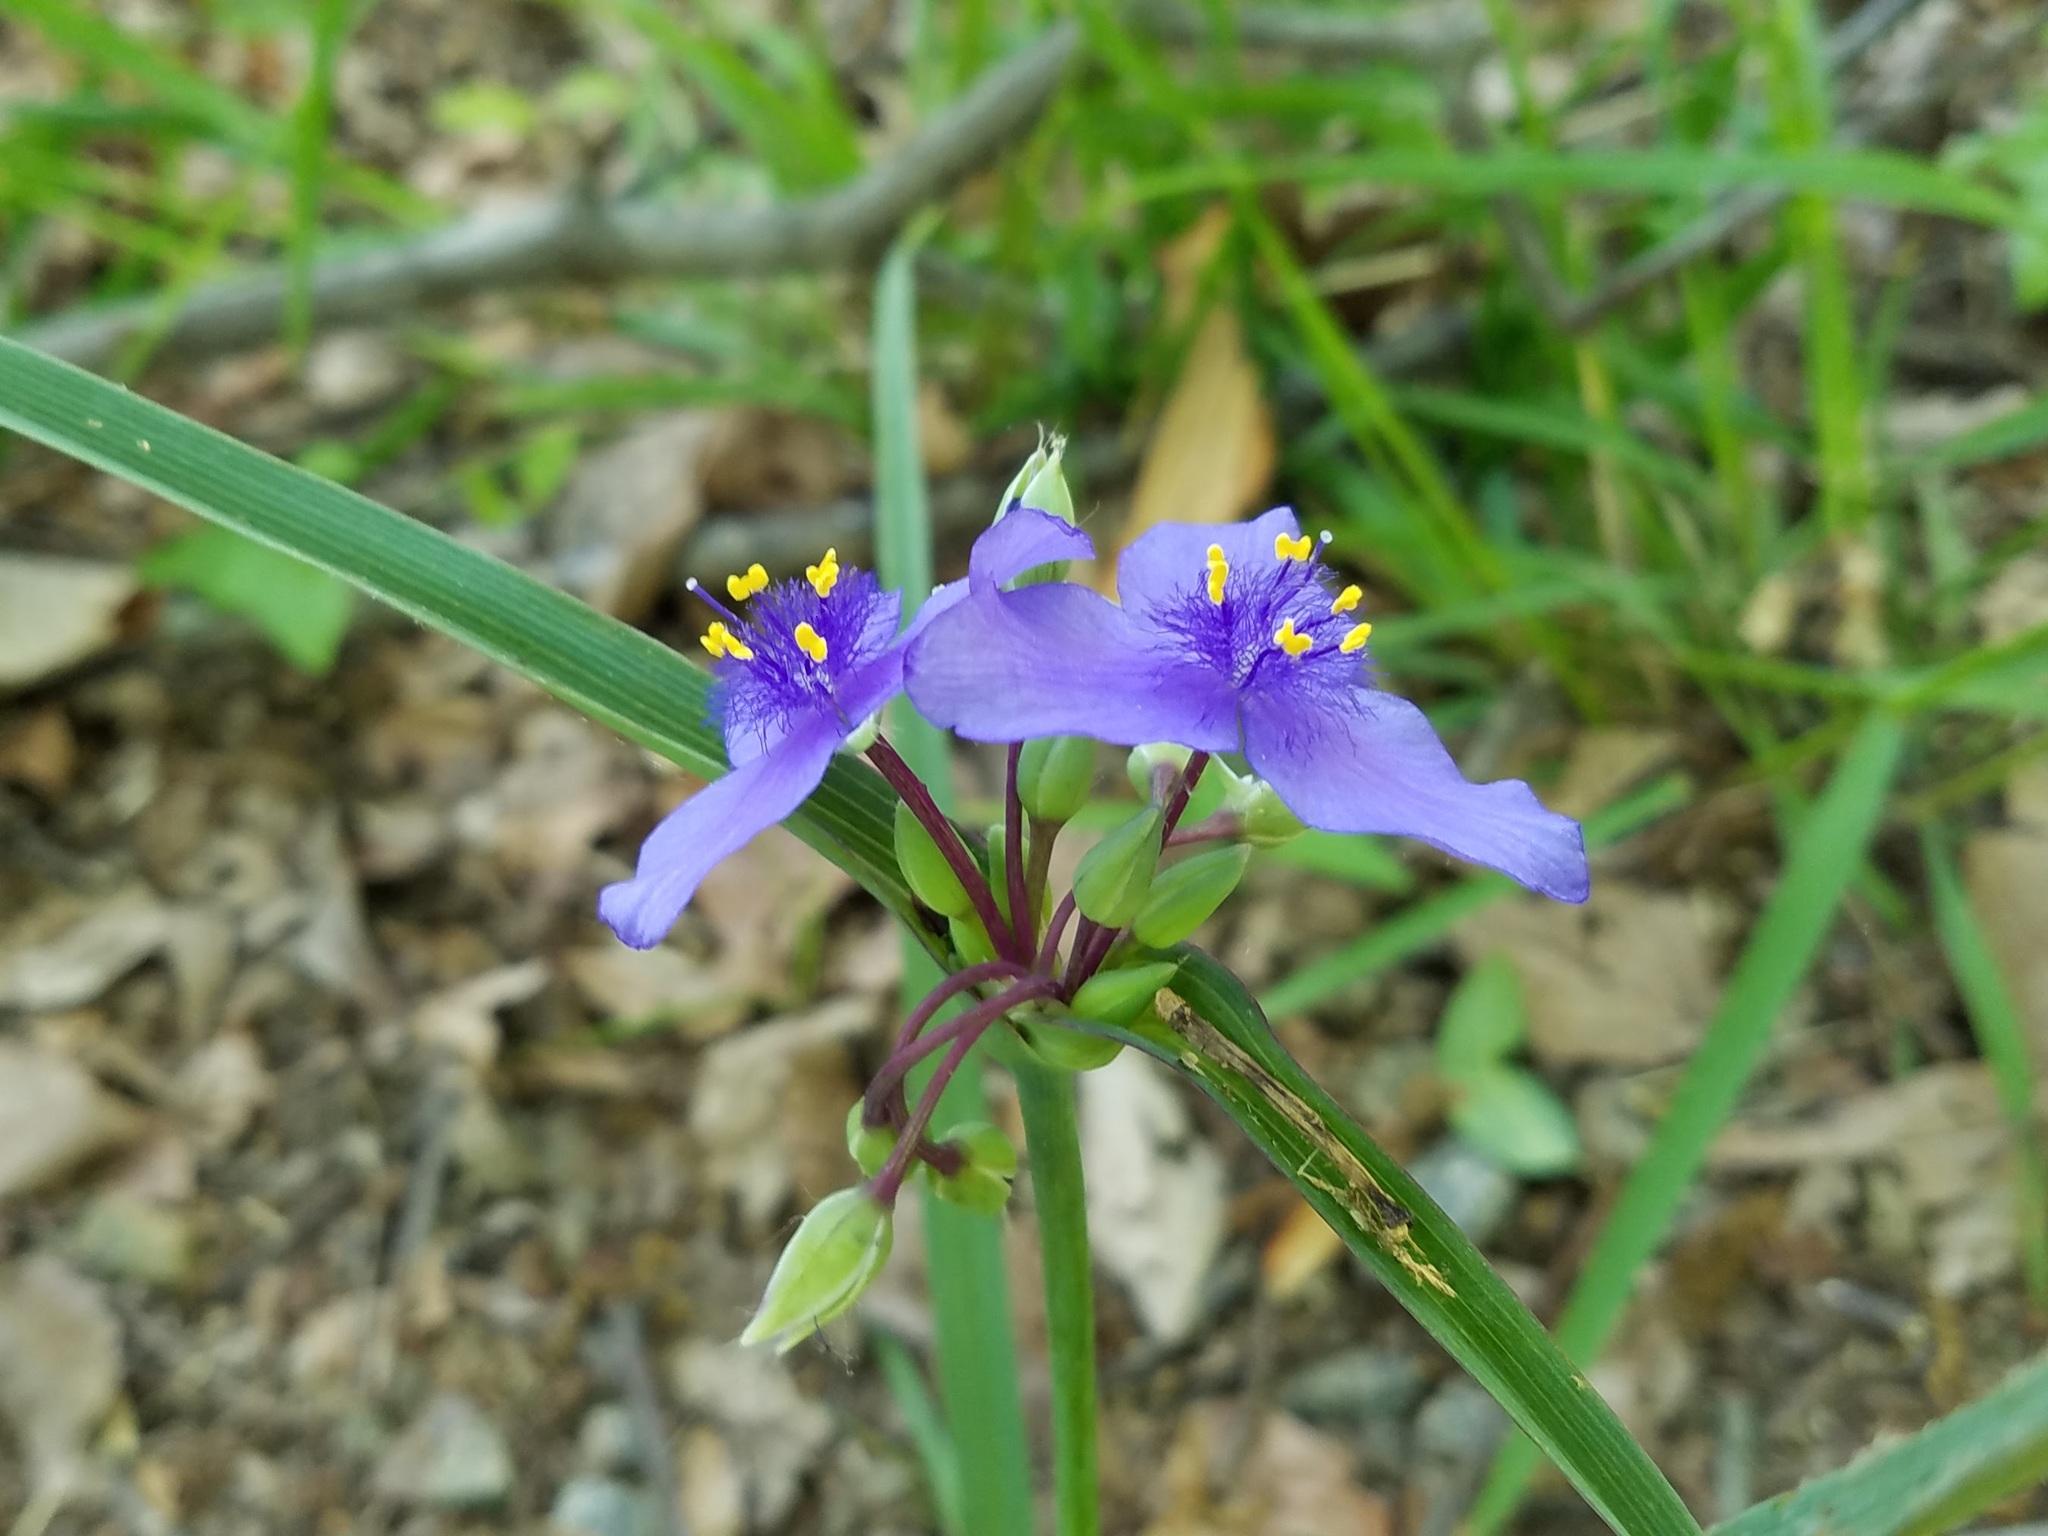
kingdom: Plantae
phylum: Tracheophyta
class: Liliopsida
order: Commelinales
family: Commelinaceae
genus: Tradescantia
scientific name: Tradescantia ohiensis
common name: Ohio spiderwort
